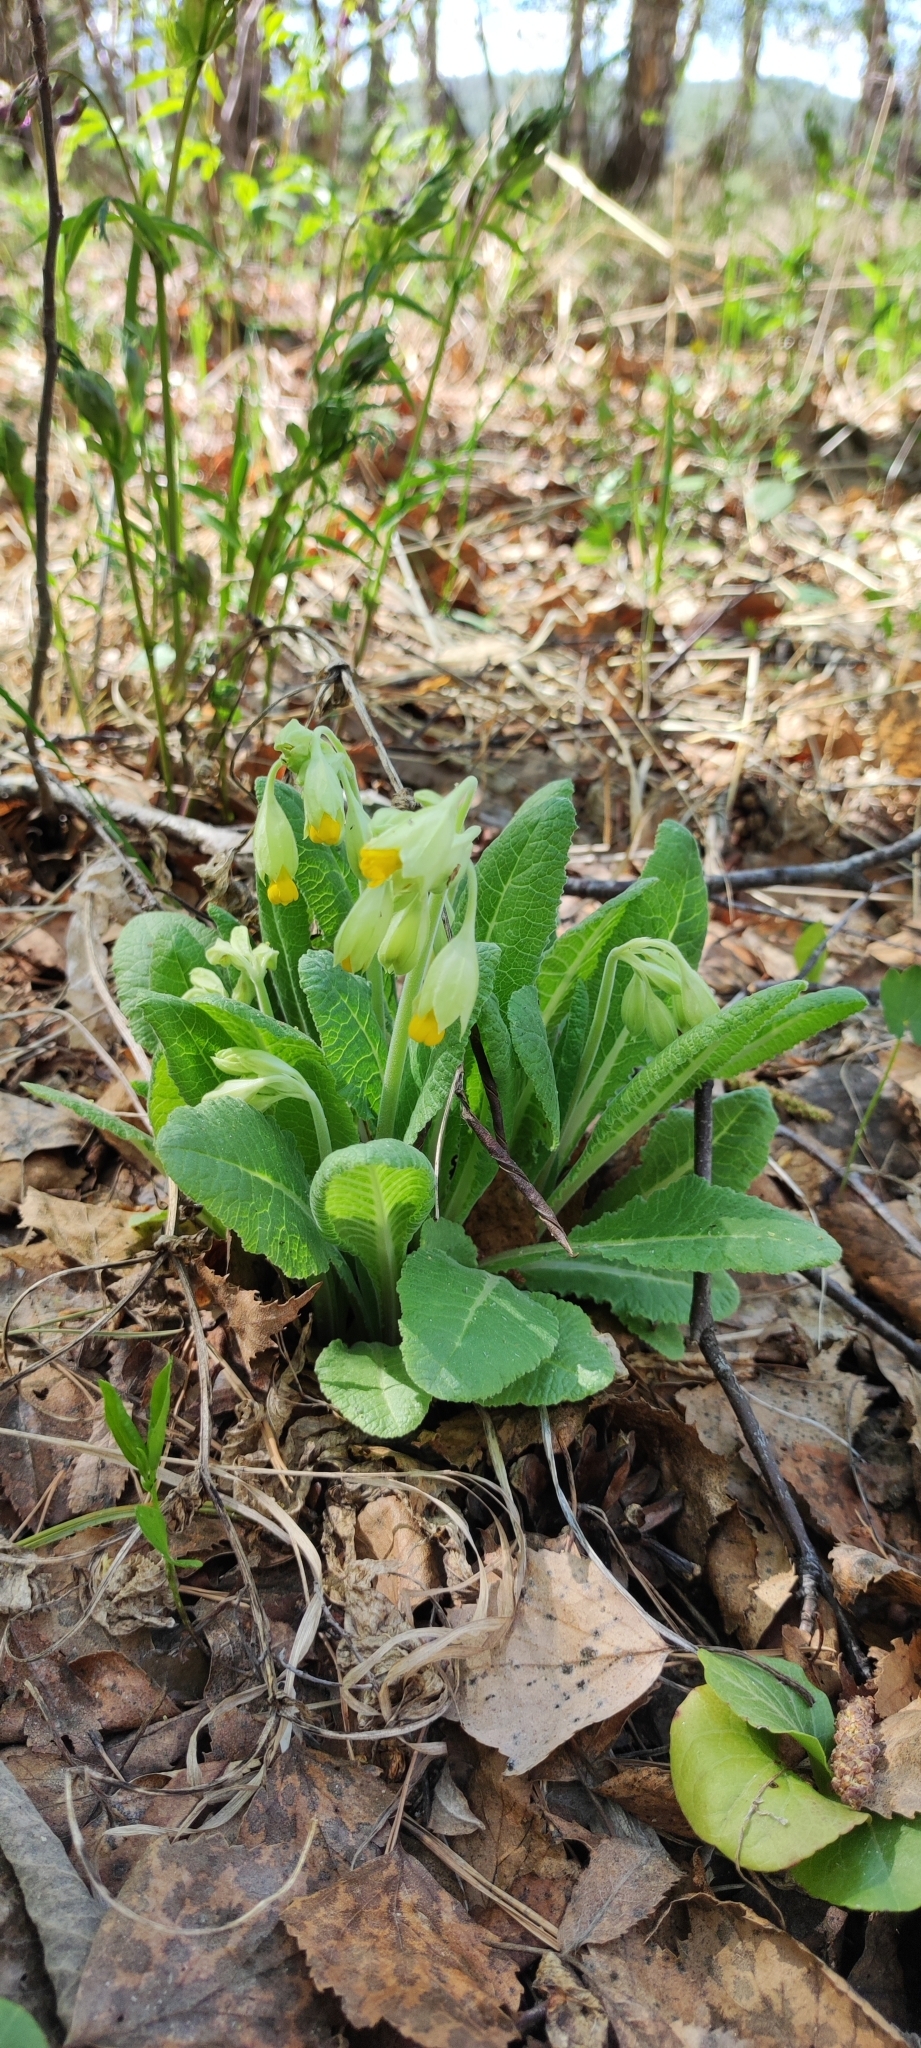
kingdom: Plantae
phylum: Tracheophyta
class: Magnoliopsida
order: Ericales
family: Primulaceae
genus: Primula
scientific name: Primula veris
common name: Cowslip
